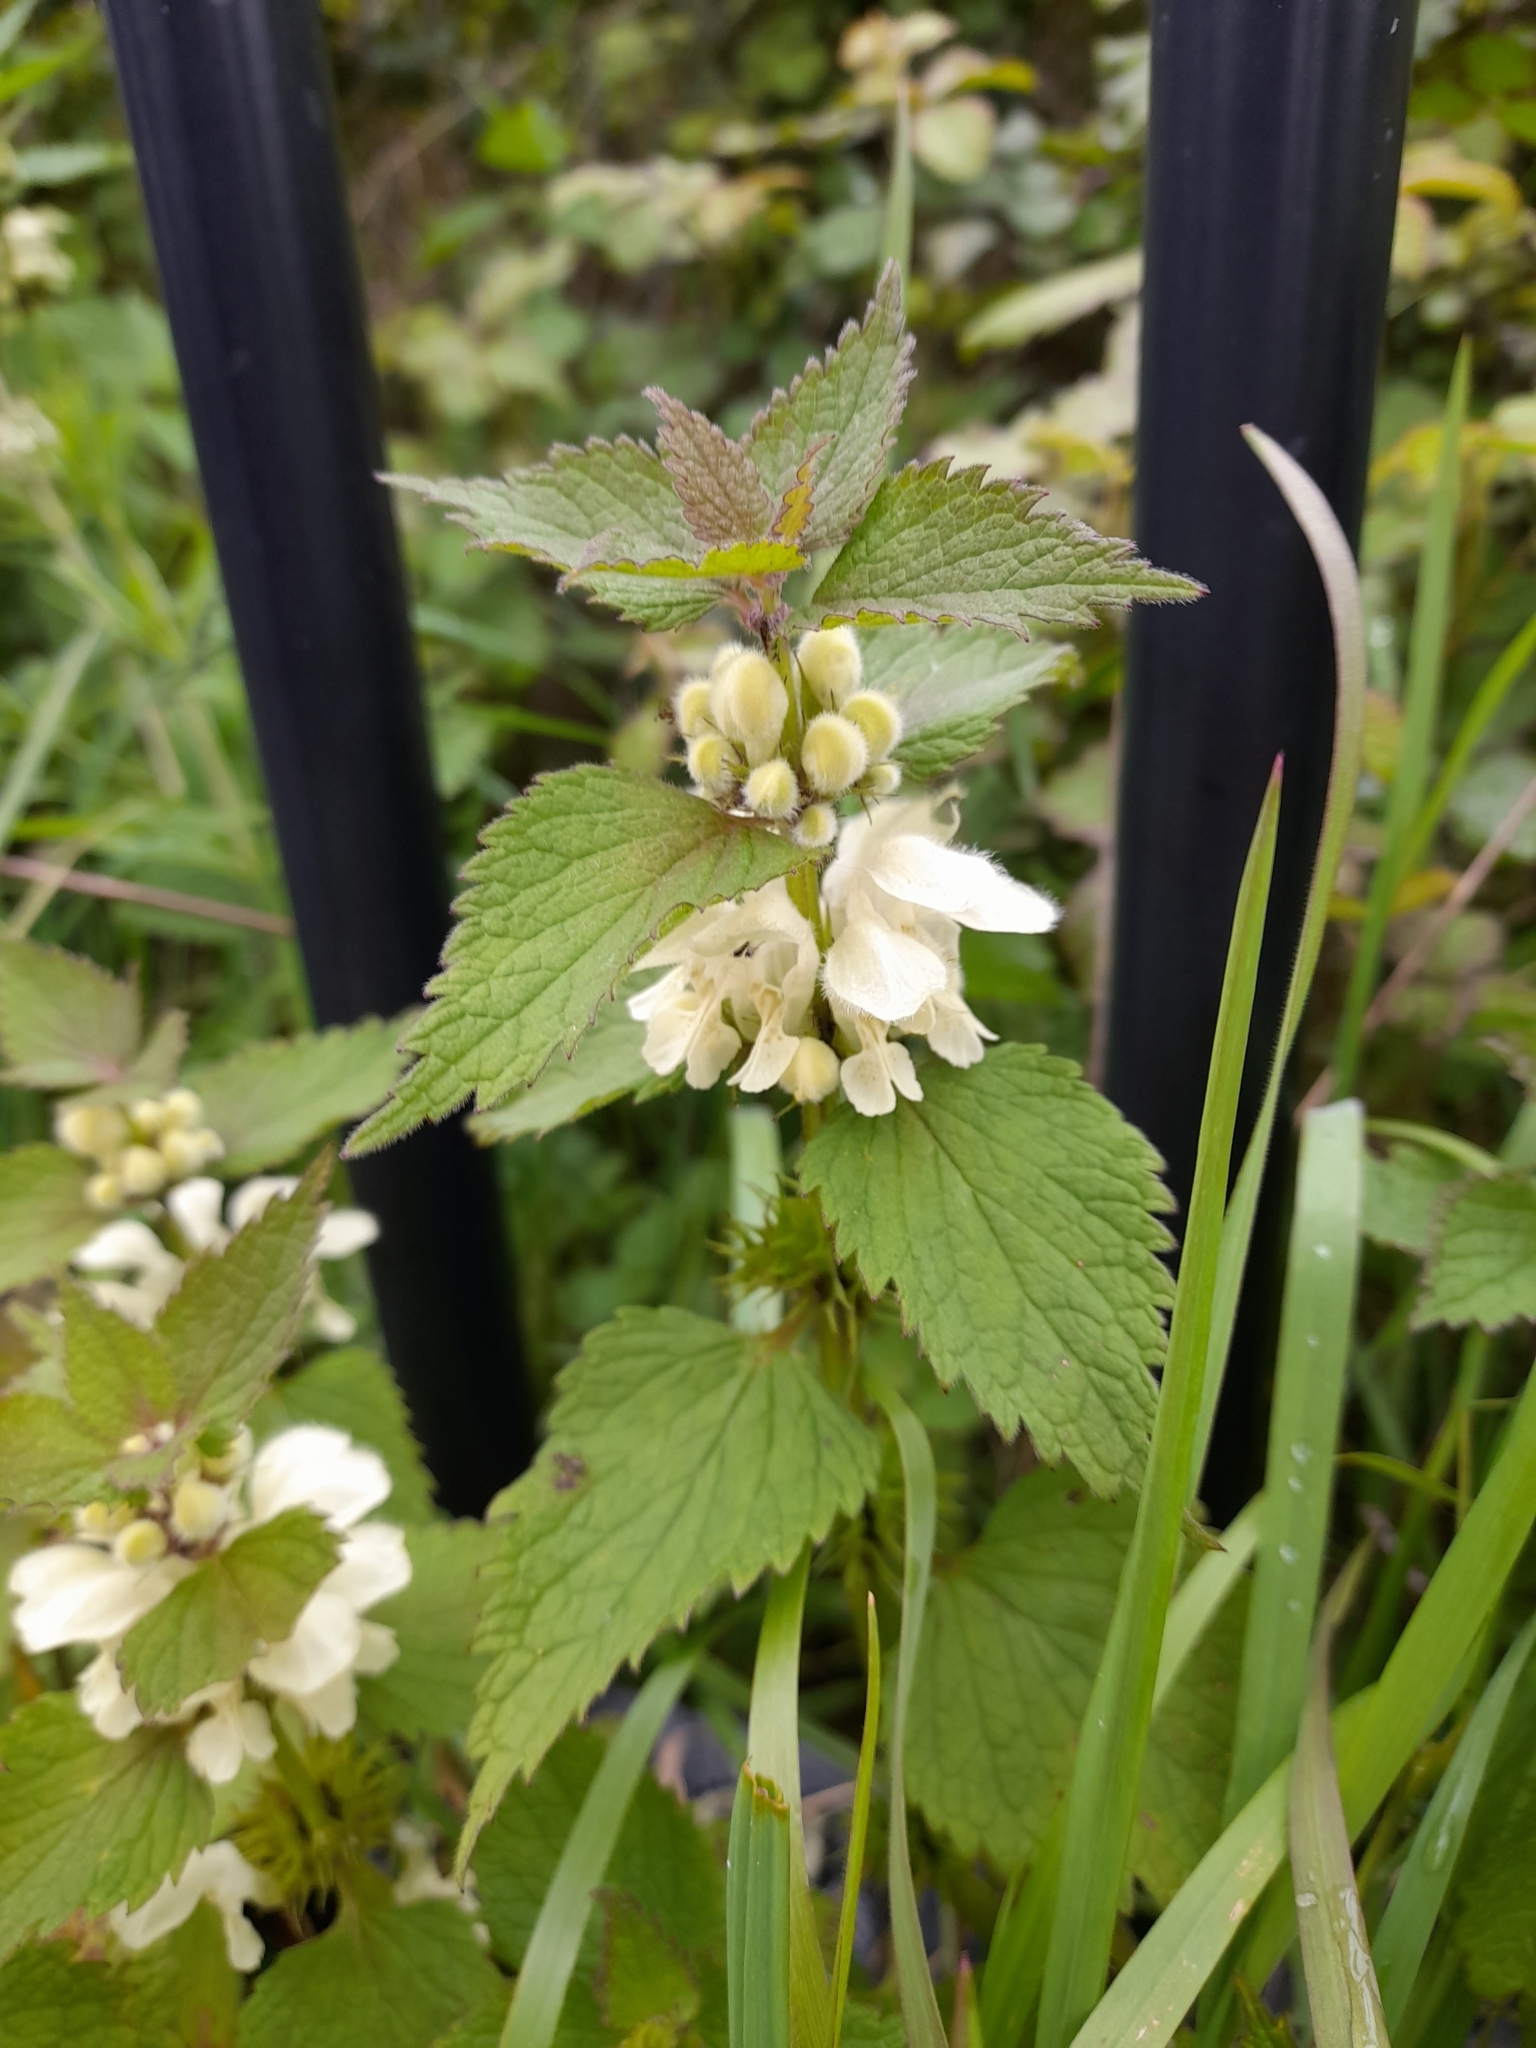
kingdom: Plantae
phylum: Tracheophyta
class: Magnoliopsida
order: Lamiales
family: Lamiaceae
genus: Lamium
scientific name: Lamium album
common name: White dead-nettle
